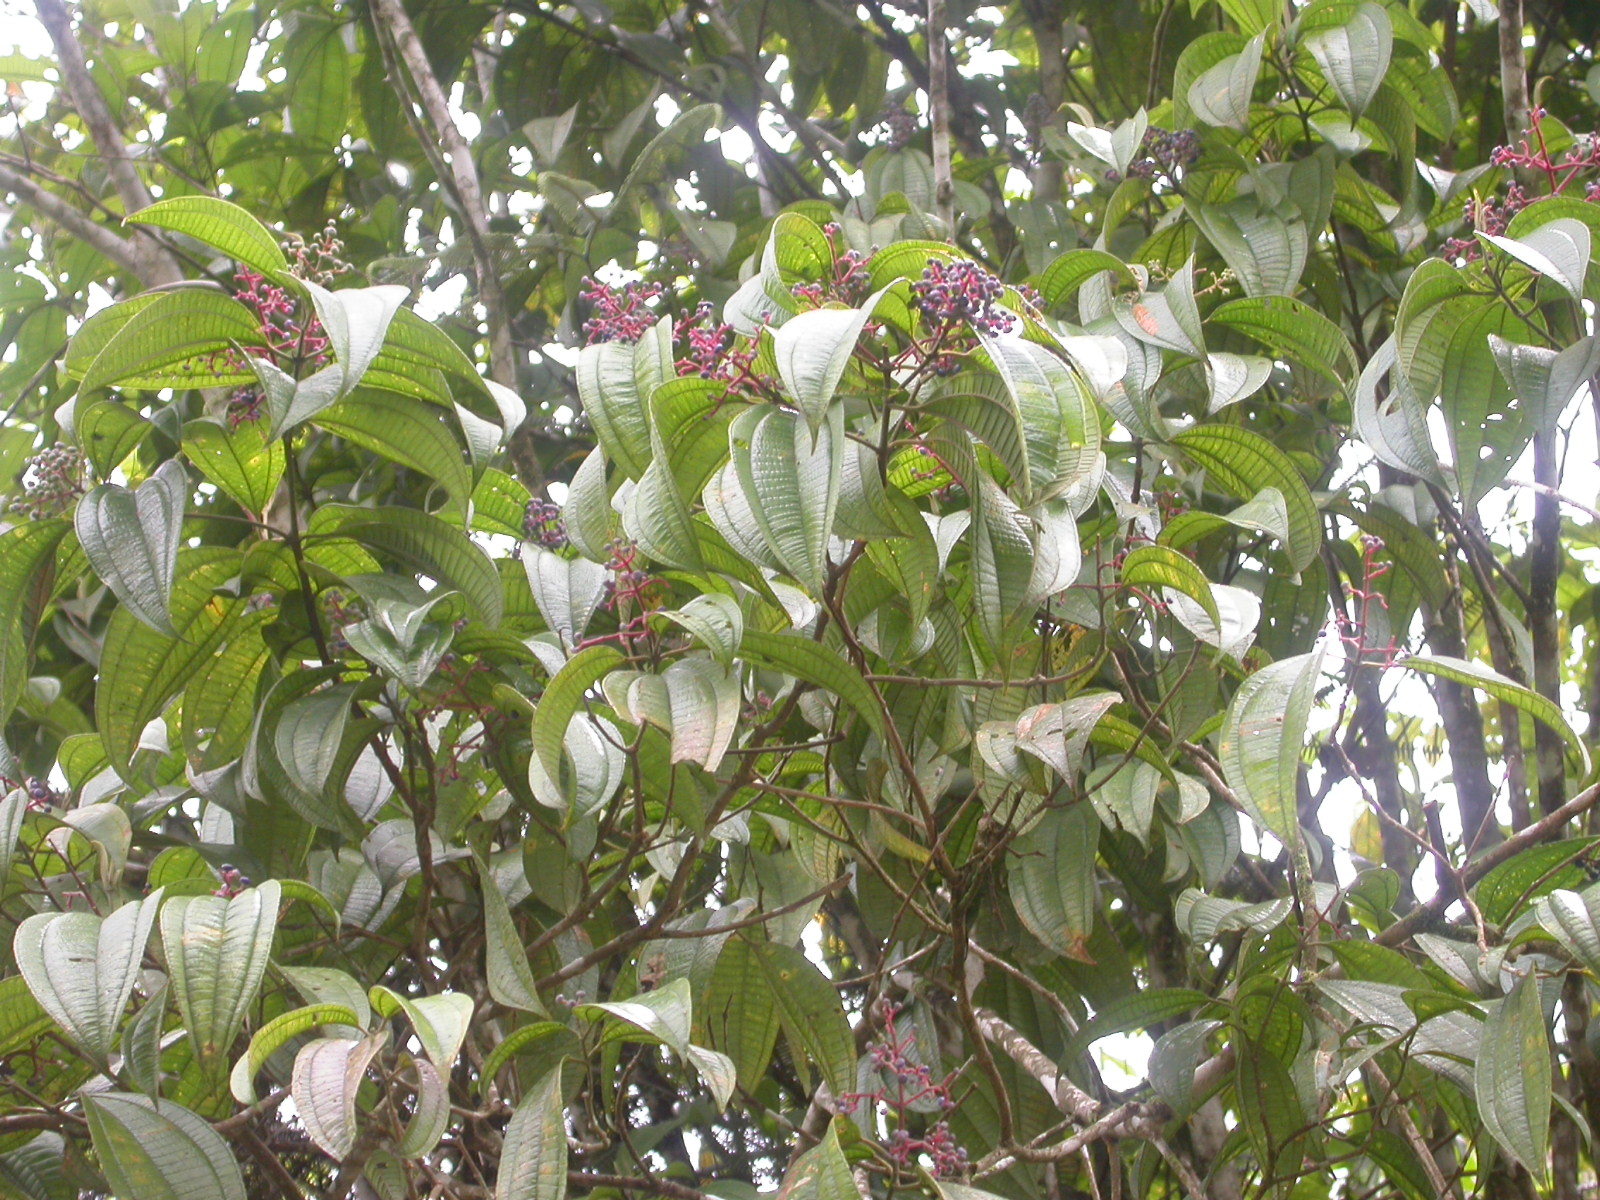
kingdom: Plantae
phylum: Tracheophyta
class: Magnoliopsida
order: Myrtales
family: Melastomataceae
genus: Miconia
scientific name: Miconia affinis
